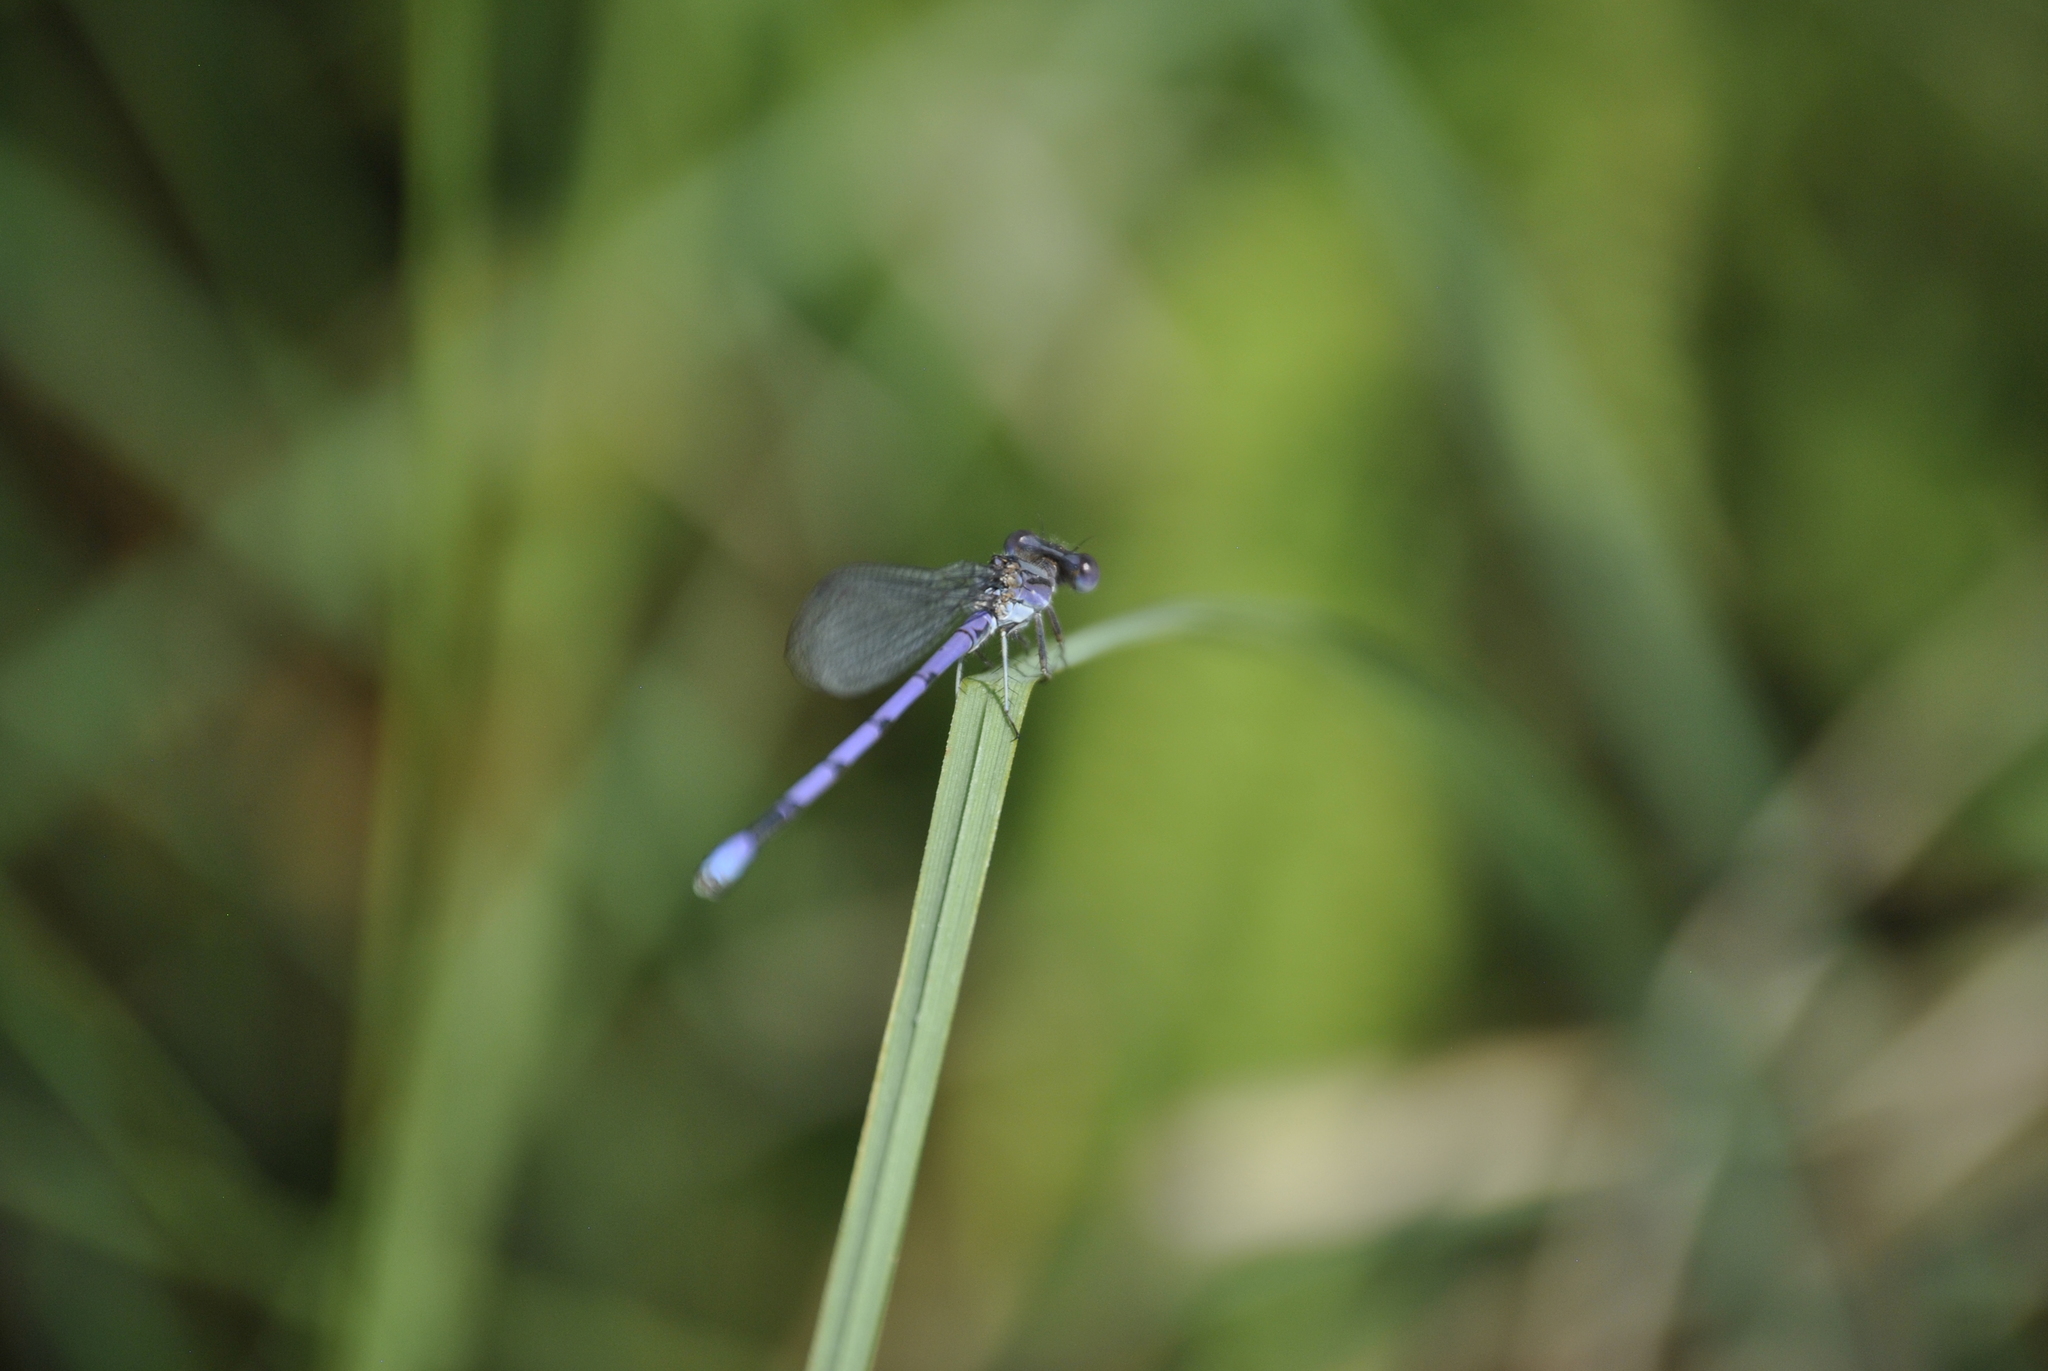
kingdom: Animalia
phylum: Arthropoda
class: Insecta
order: Odonata
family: Coenagrionidae
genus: Argia
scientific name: Argia fumipennis
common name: Variable dancer
